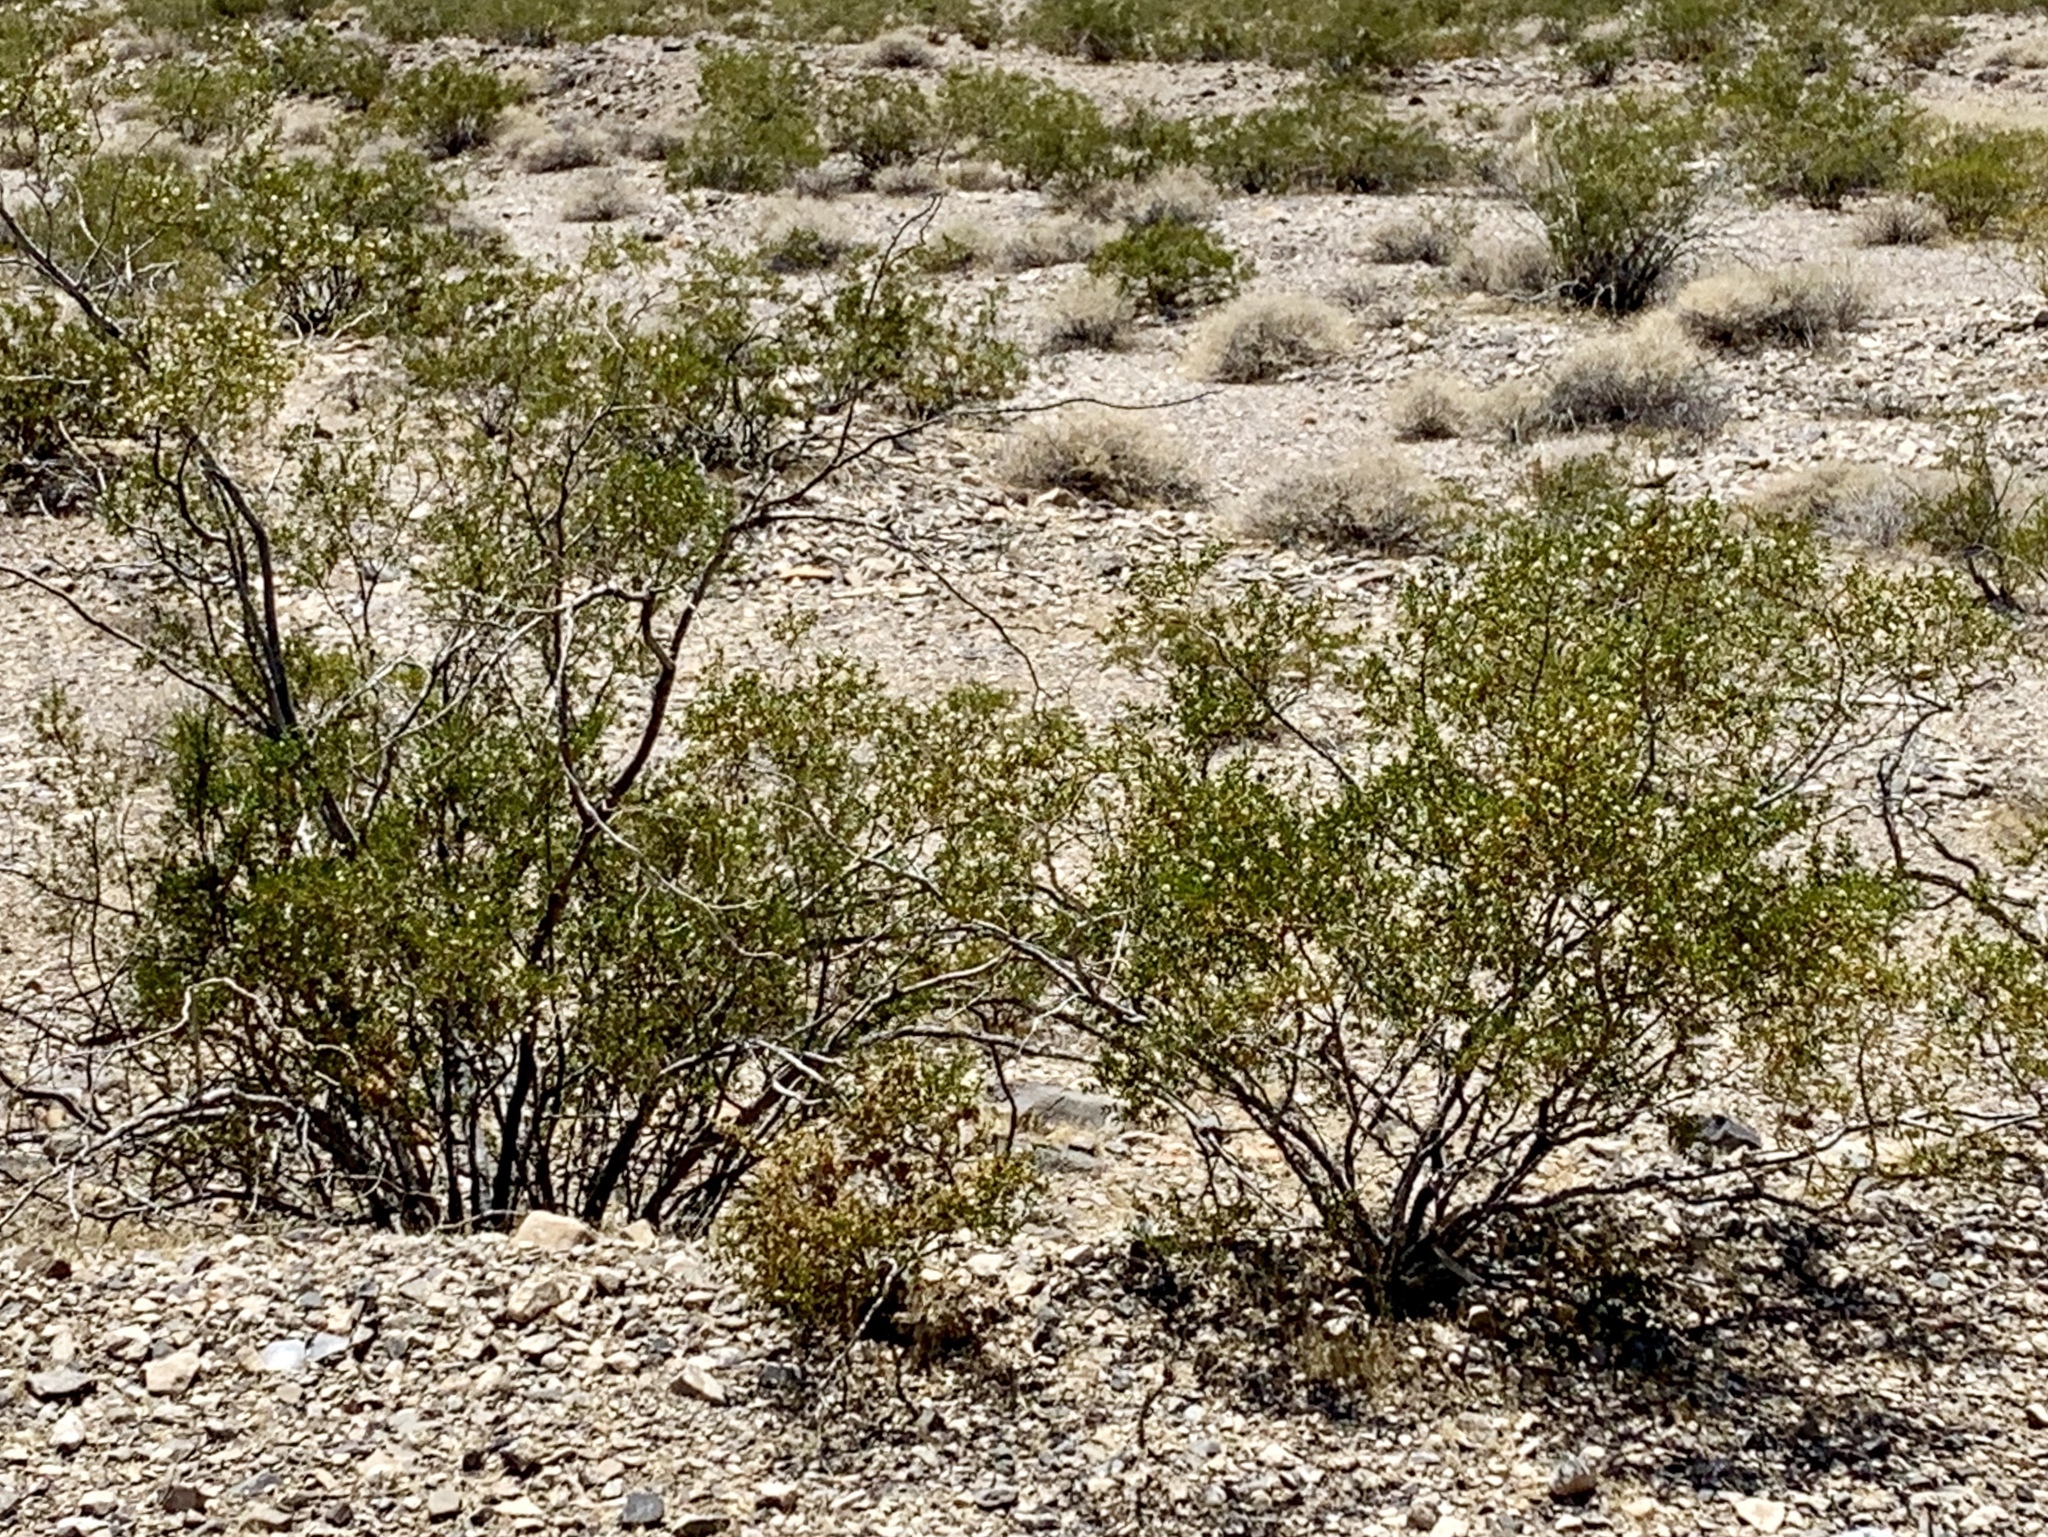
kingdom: Plantae
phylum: Tracheophyta
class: Magnoliopsida
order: Zygophyllales
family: Zygophyllaceae
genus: Larrea
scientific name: Larrea tridentata
